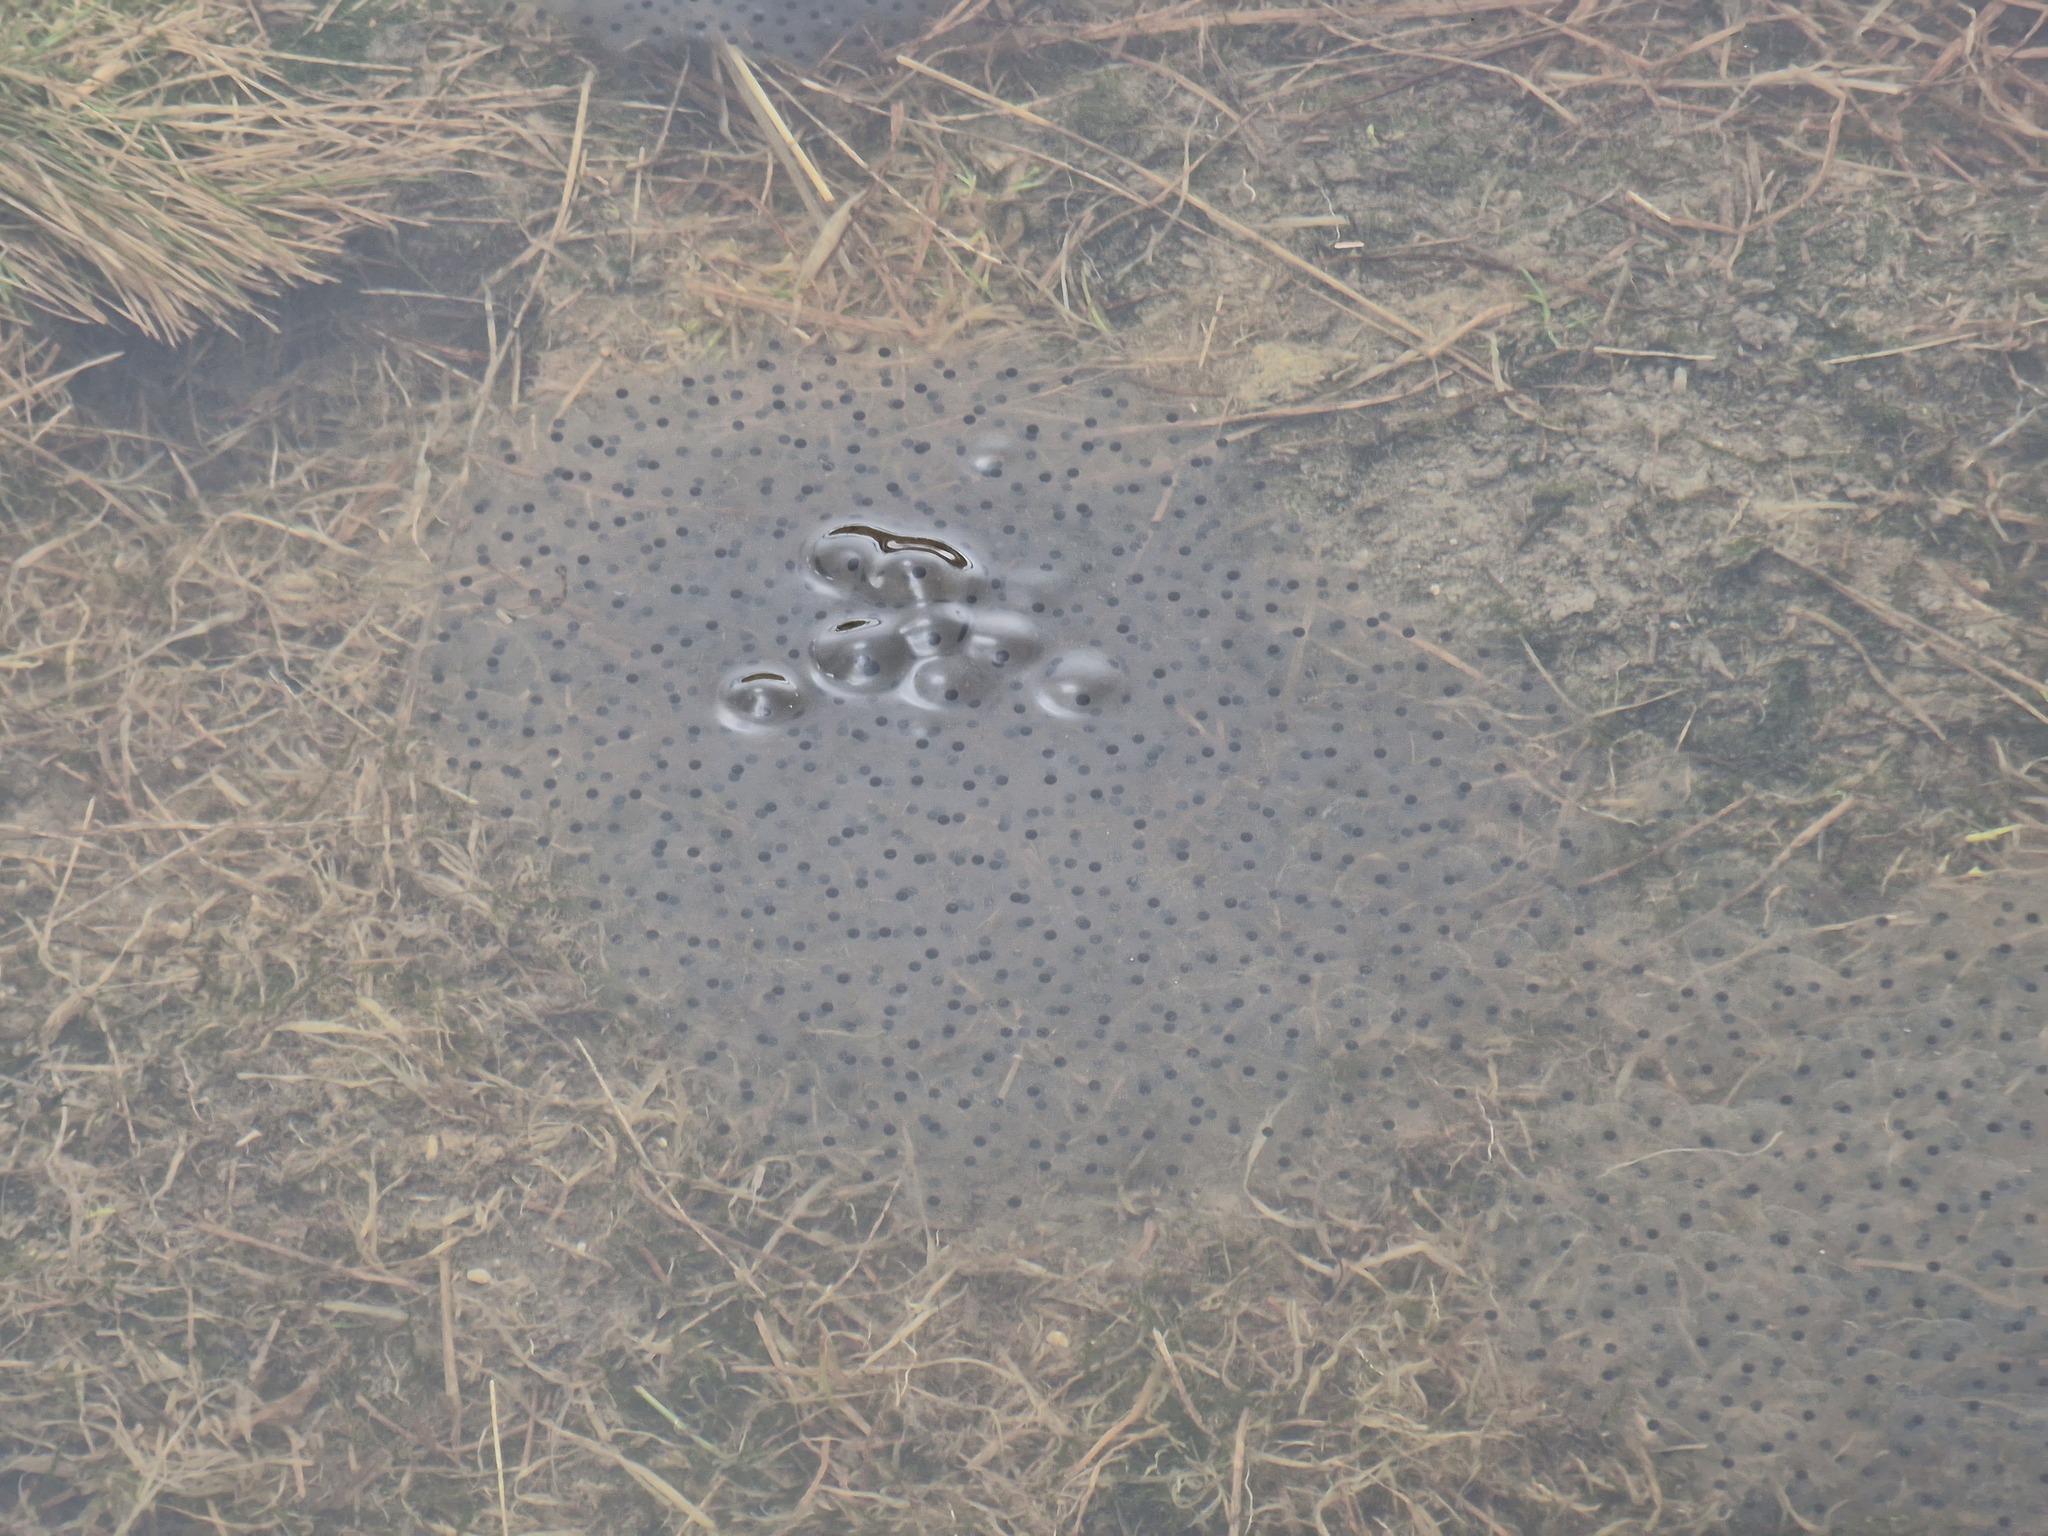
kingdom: Animalia
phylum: Chordata
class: Amphibia
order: Anura
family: Ranidae
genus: Rana
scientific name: Rana temporaria
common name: Common frog
